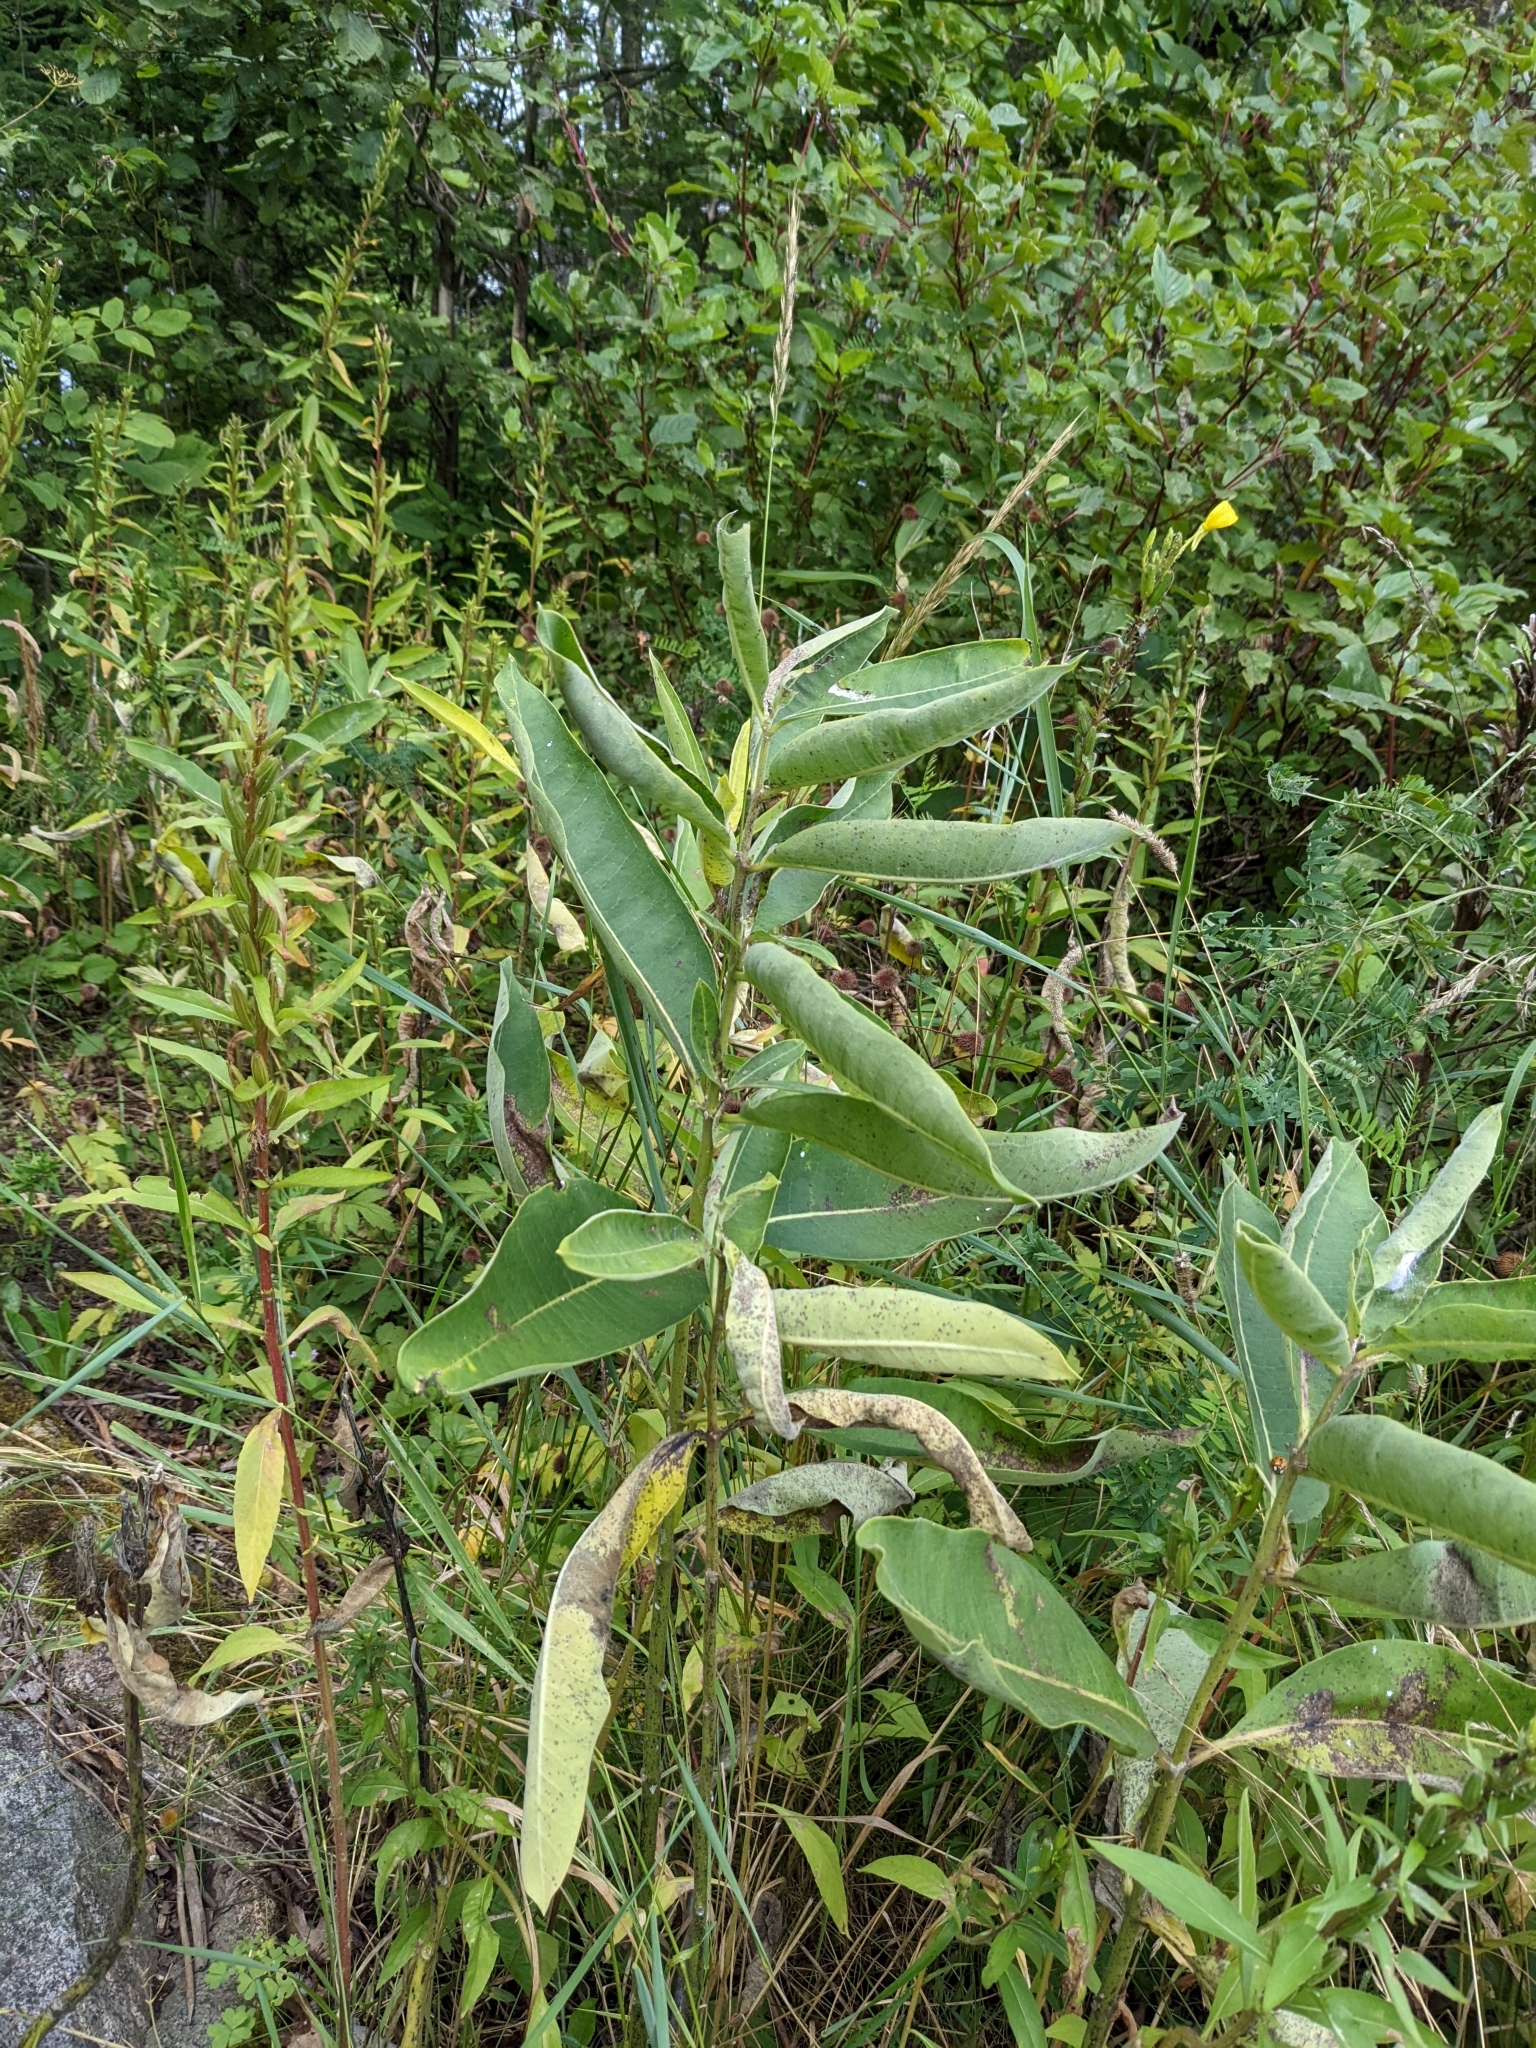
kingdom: Plantae
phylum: Tracheophyta
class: Magnoliopsida
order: Gentianales
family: Apocynaceae
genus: Asclepias
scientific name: Asclepias syriaca
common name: Common milkweed
